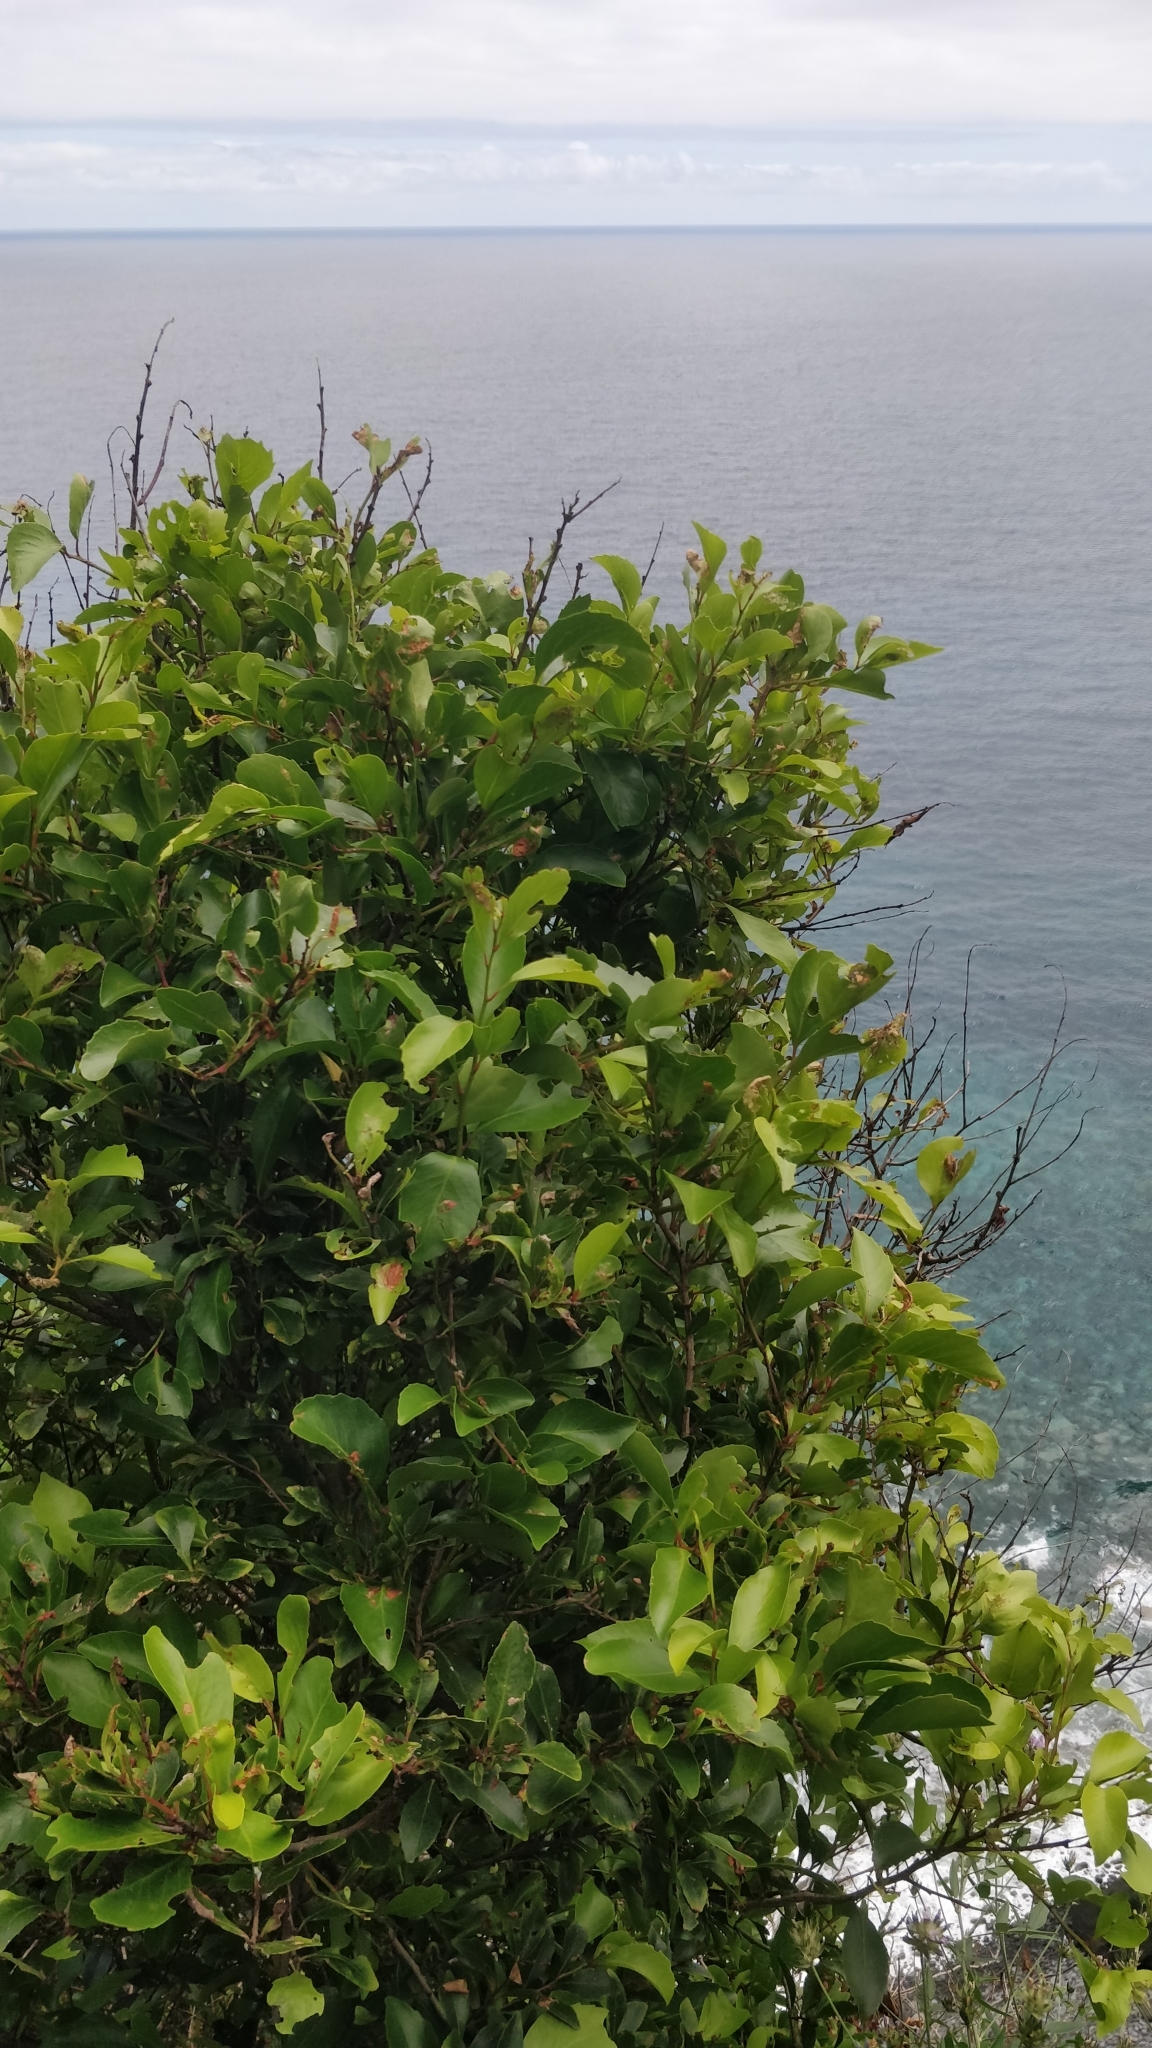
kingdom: Plantae
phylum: Tracheophyta
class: Magnoliopsida
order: Celastrales
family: Celastraceae
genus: Gymnosporia
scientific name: Gymnosporia dryandri
